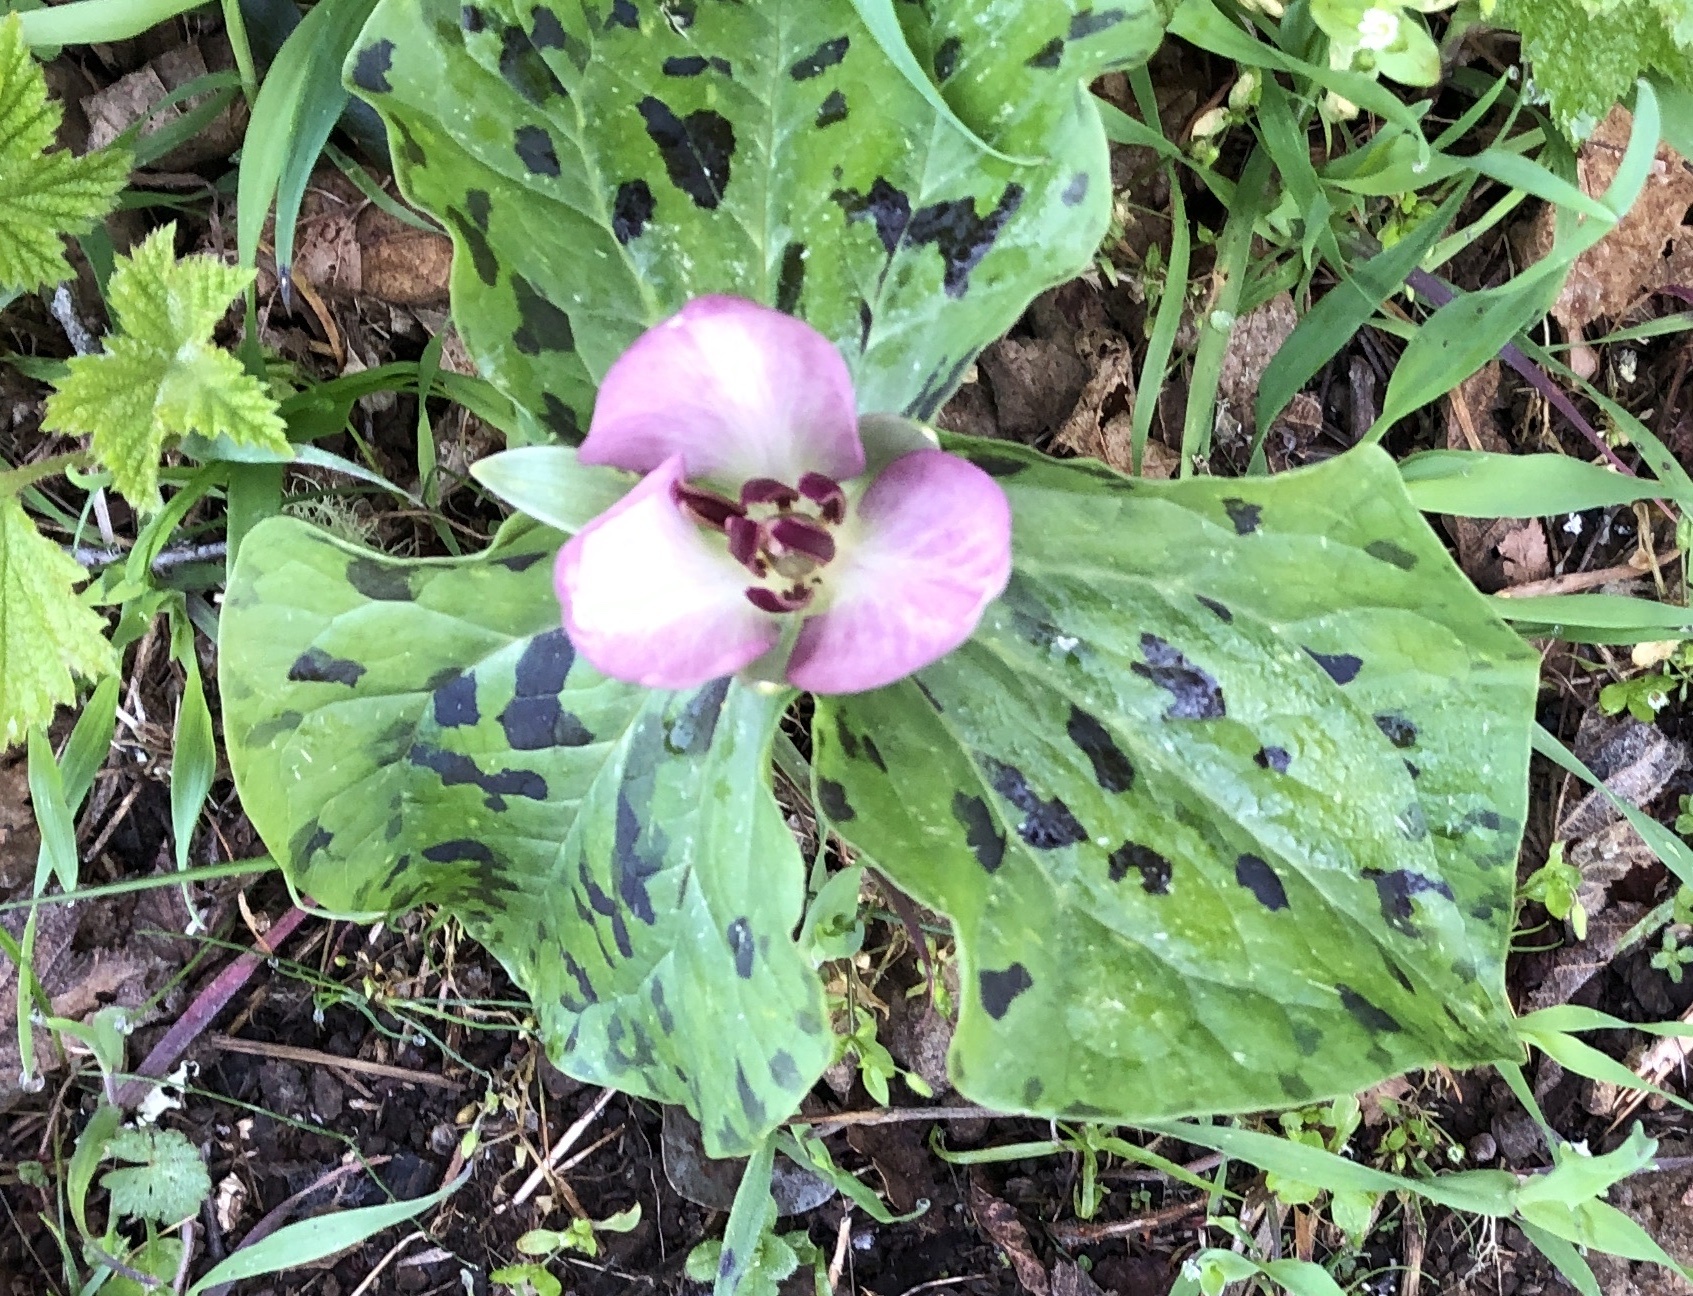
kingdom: Plantae
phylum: Tracheophyta
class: Liliopsida
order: Liliales
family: Melanthiaceae
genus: Trillium
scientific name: Trillium chloropetalum
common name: Giant trillium
